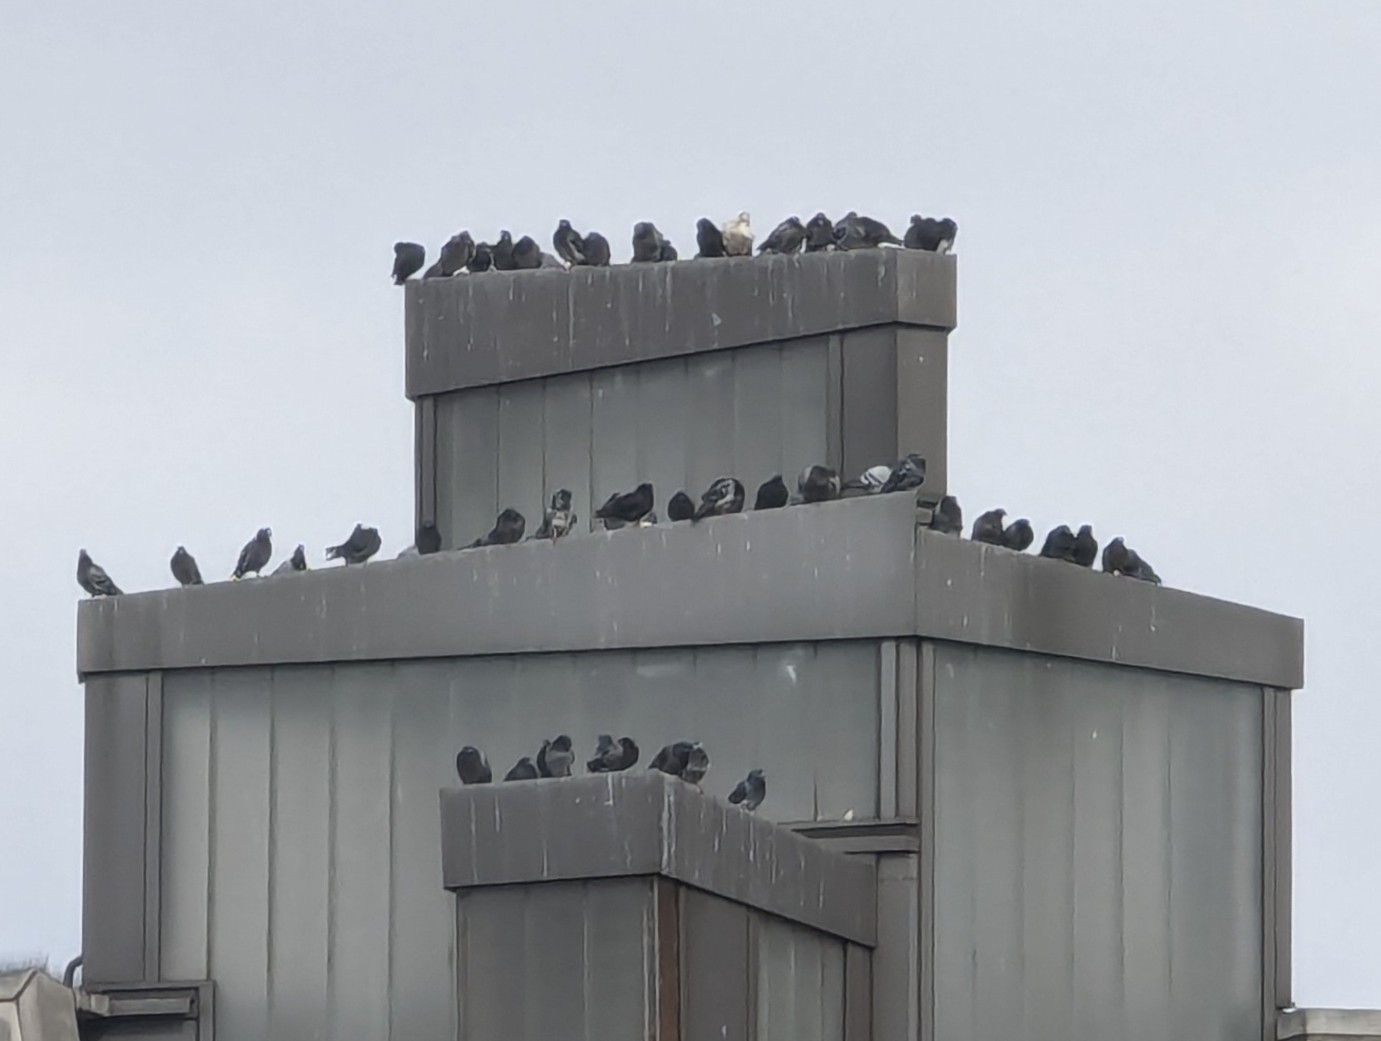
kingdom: Animalia
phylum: Chordata
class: Aves
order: Columbiformes
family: Columbidae
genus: Columba
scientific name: Columba livia
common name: Rock pigeon
